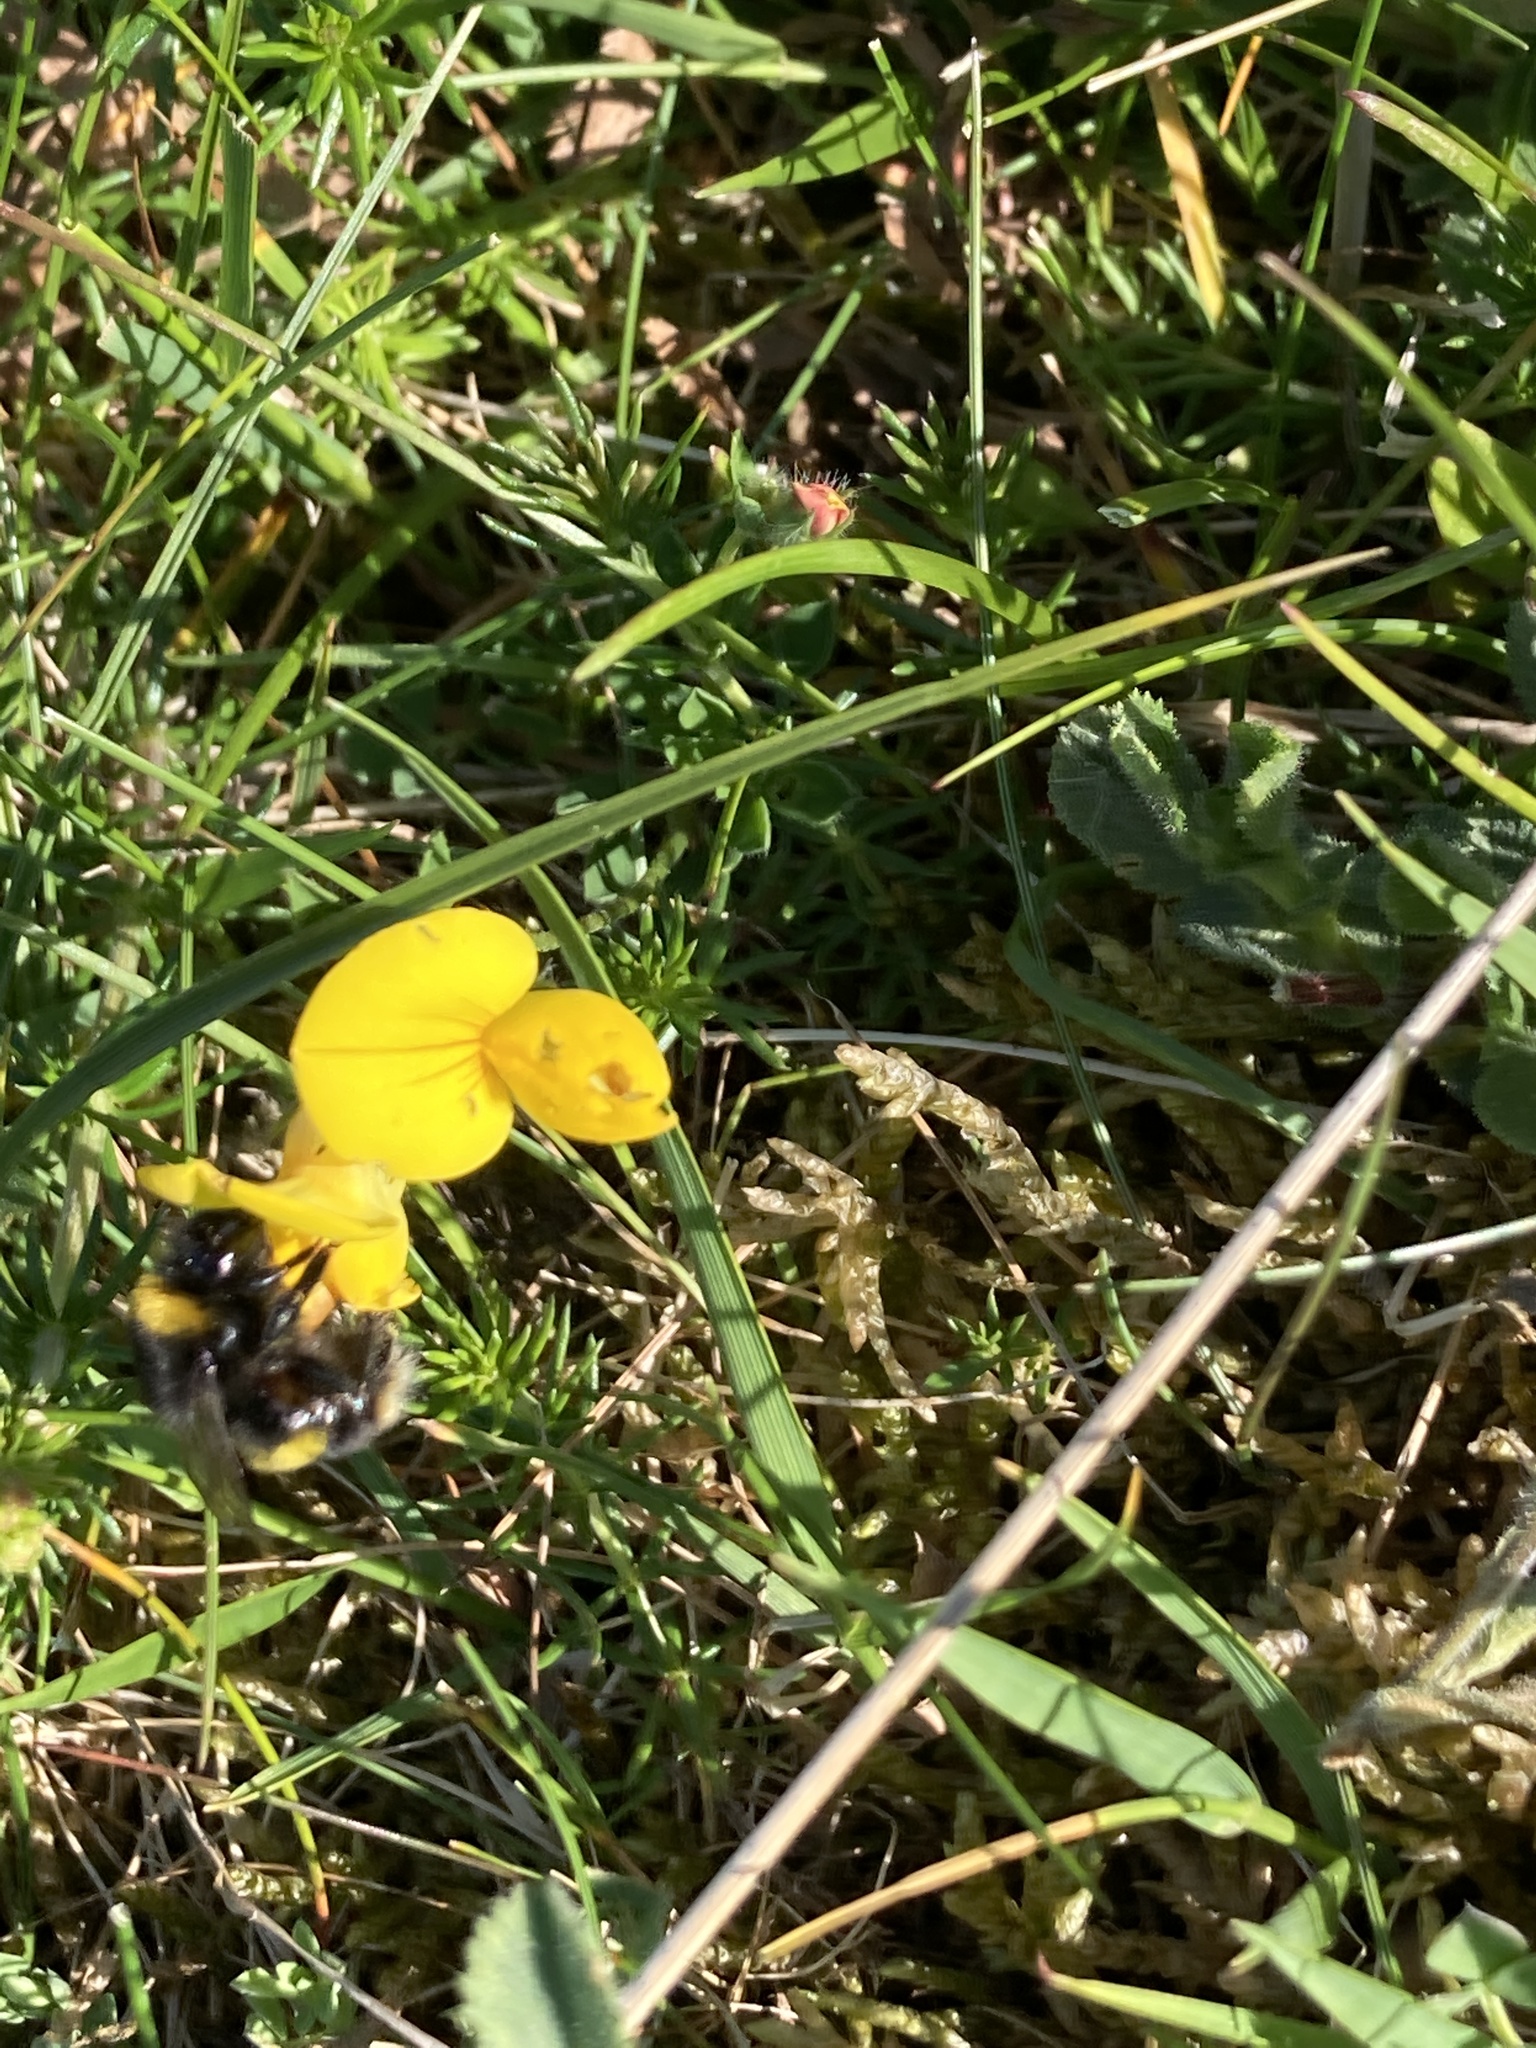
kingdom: Animalia
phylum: Arthropoda
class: Insecta
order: Hymenoptera
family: Apidae
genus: Bombus
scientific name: Bombus
